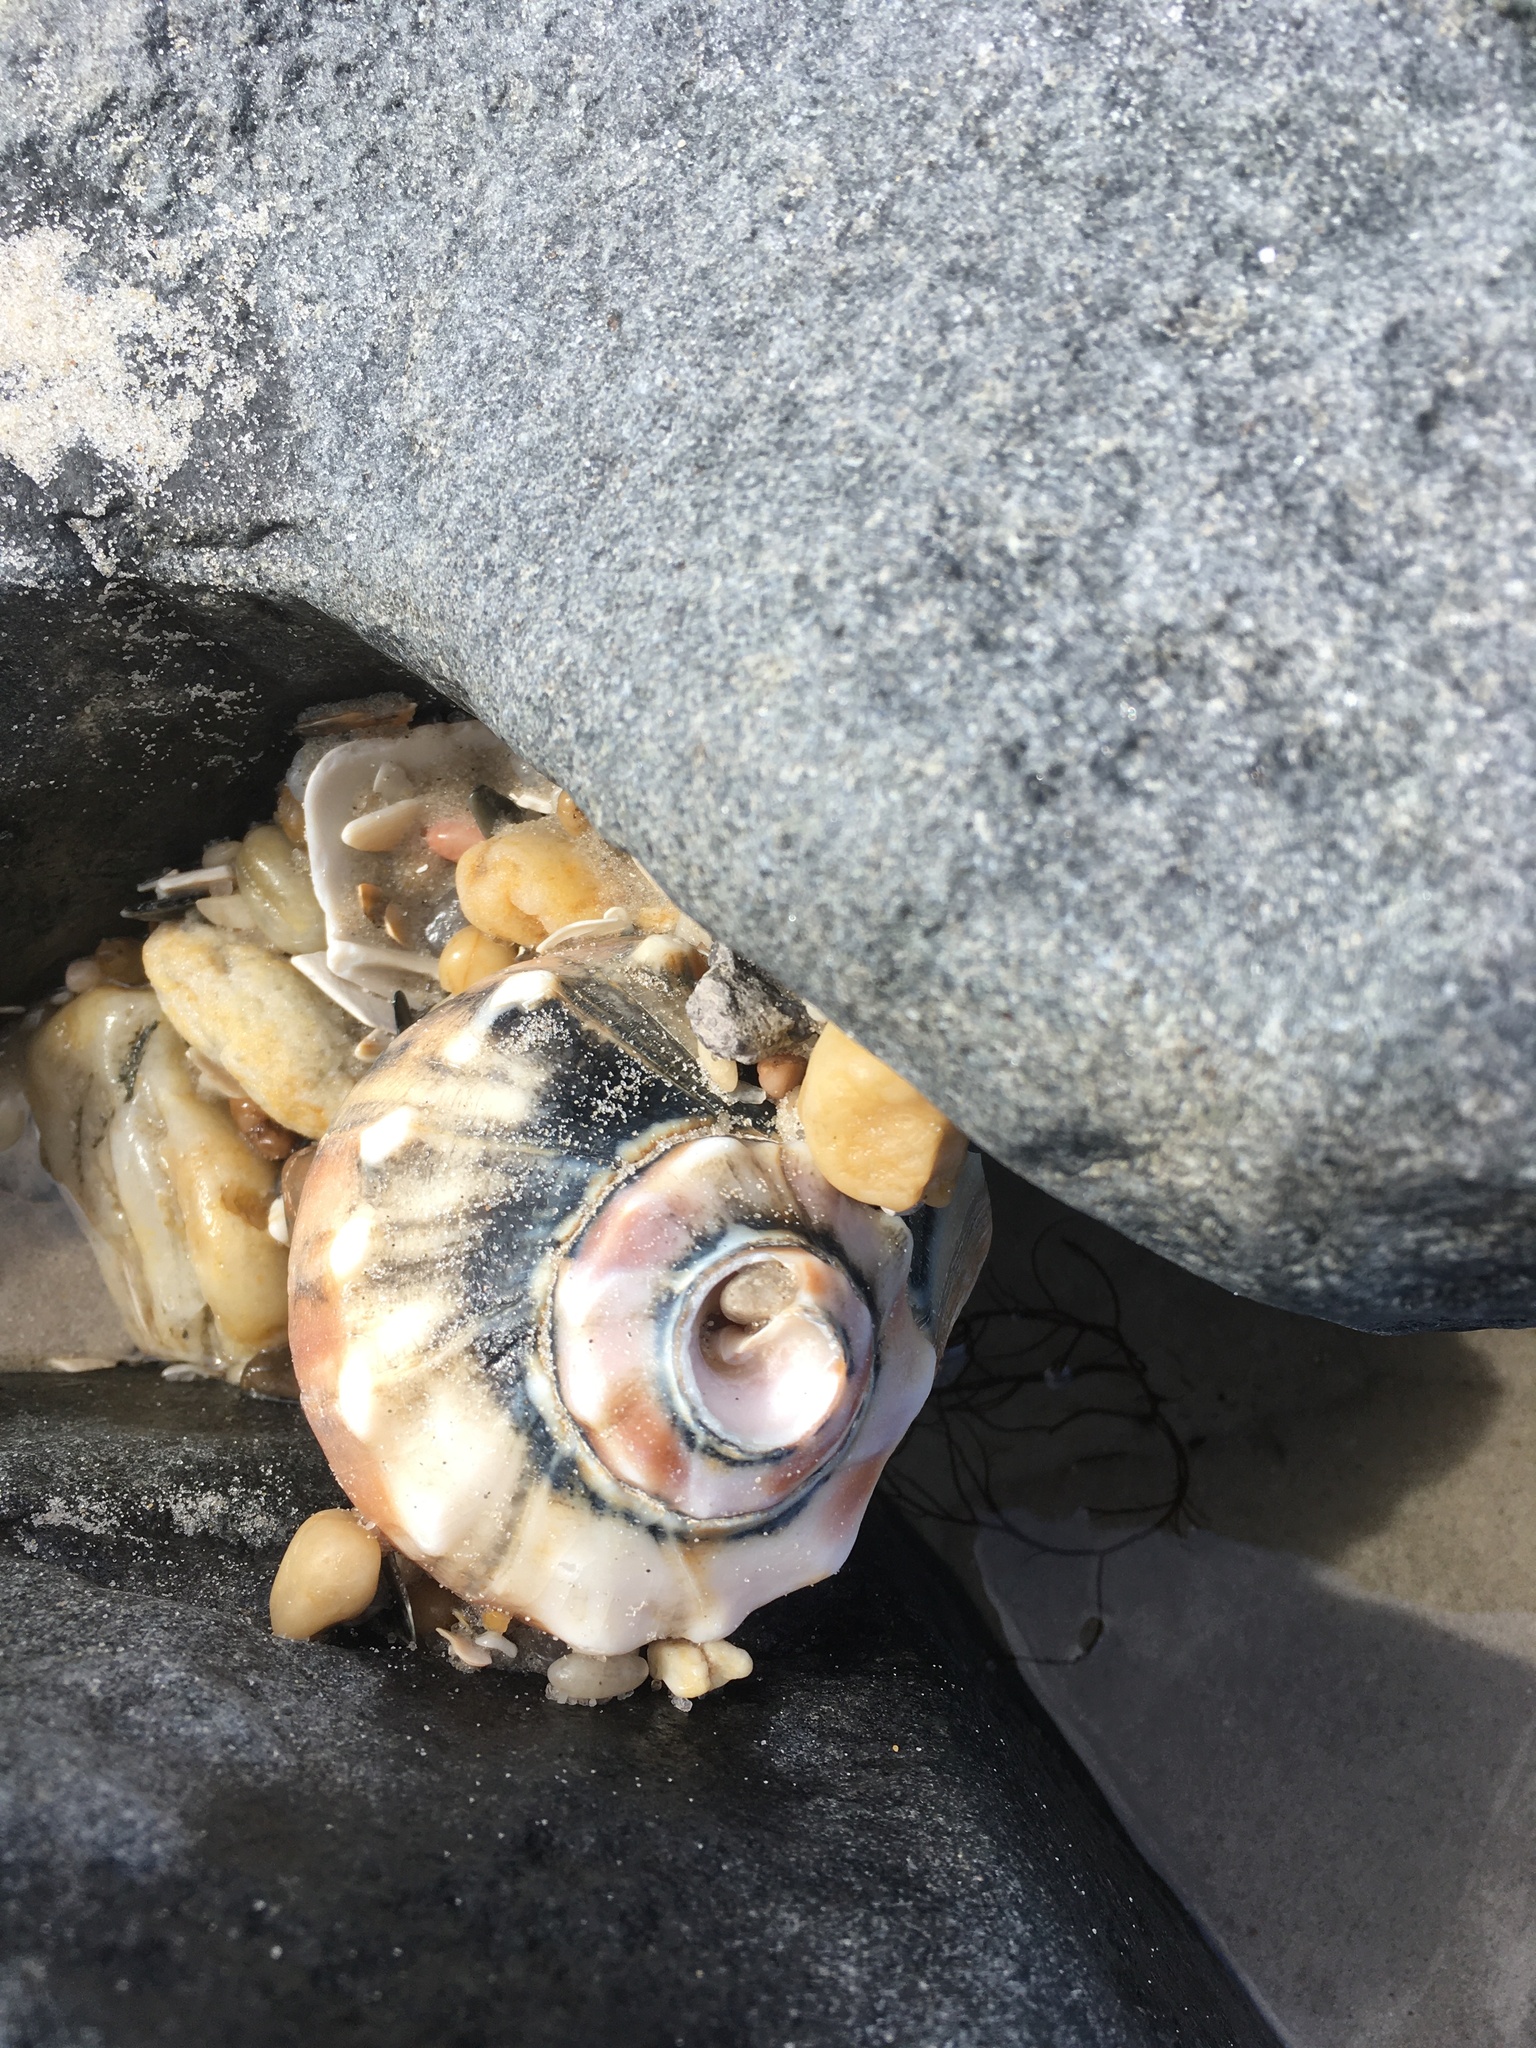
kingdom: Animalia
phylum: Mollusca
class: Gastropoda
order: Neogastropoda
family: Busyconidae
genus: Busycon
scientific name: Busycon carica
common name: Knobbed whelk
